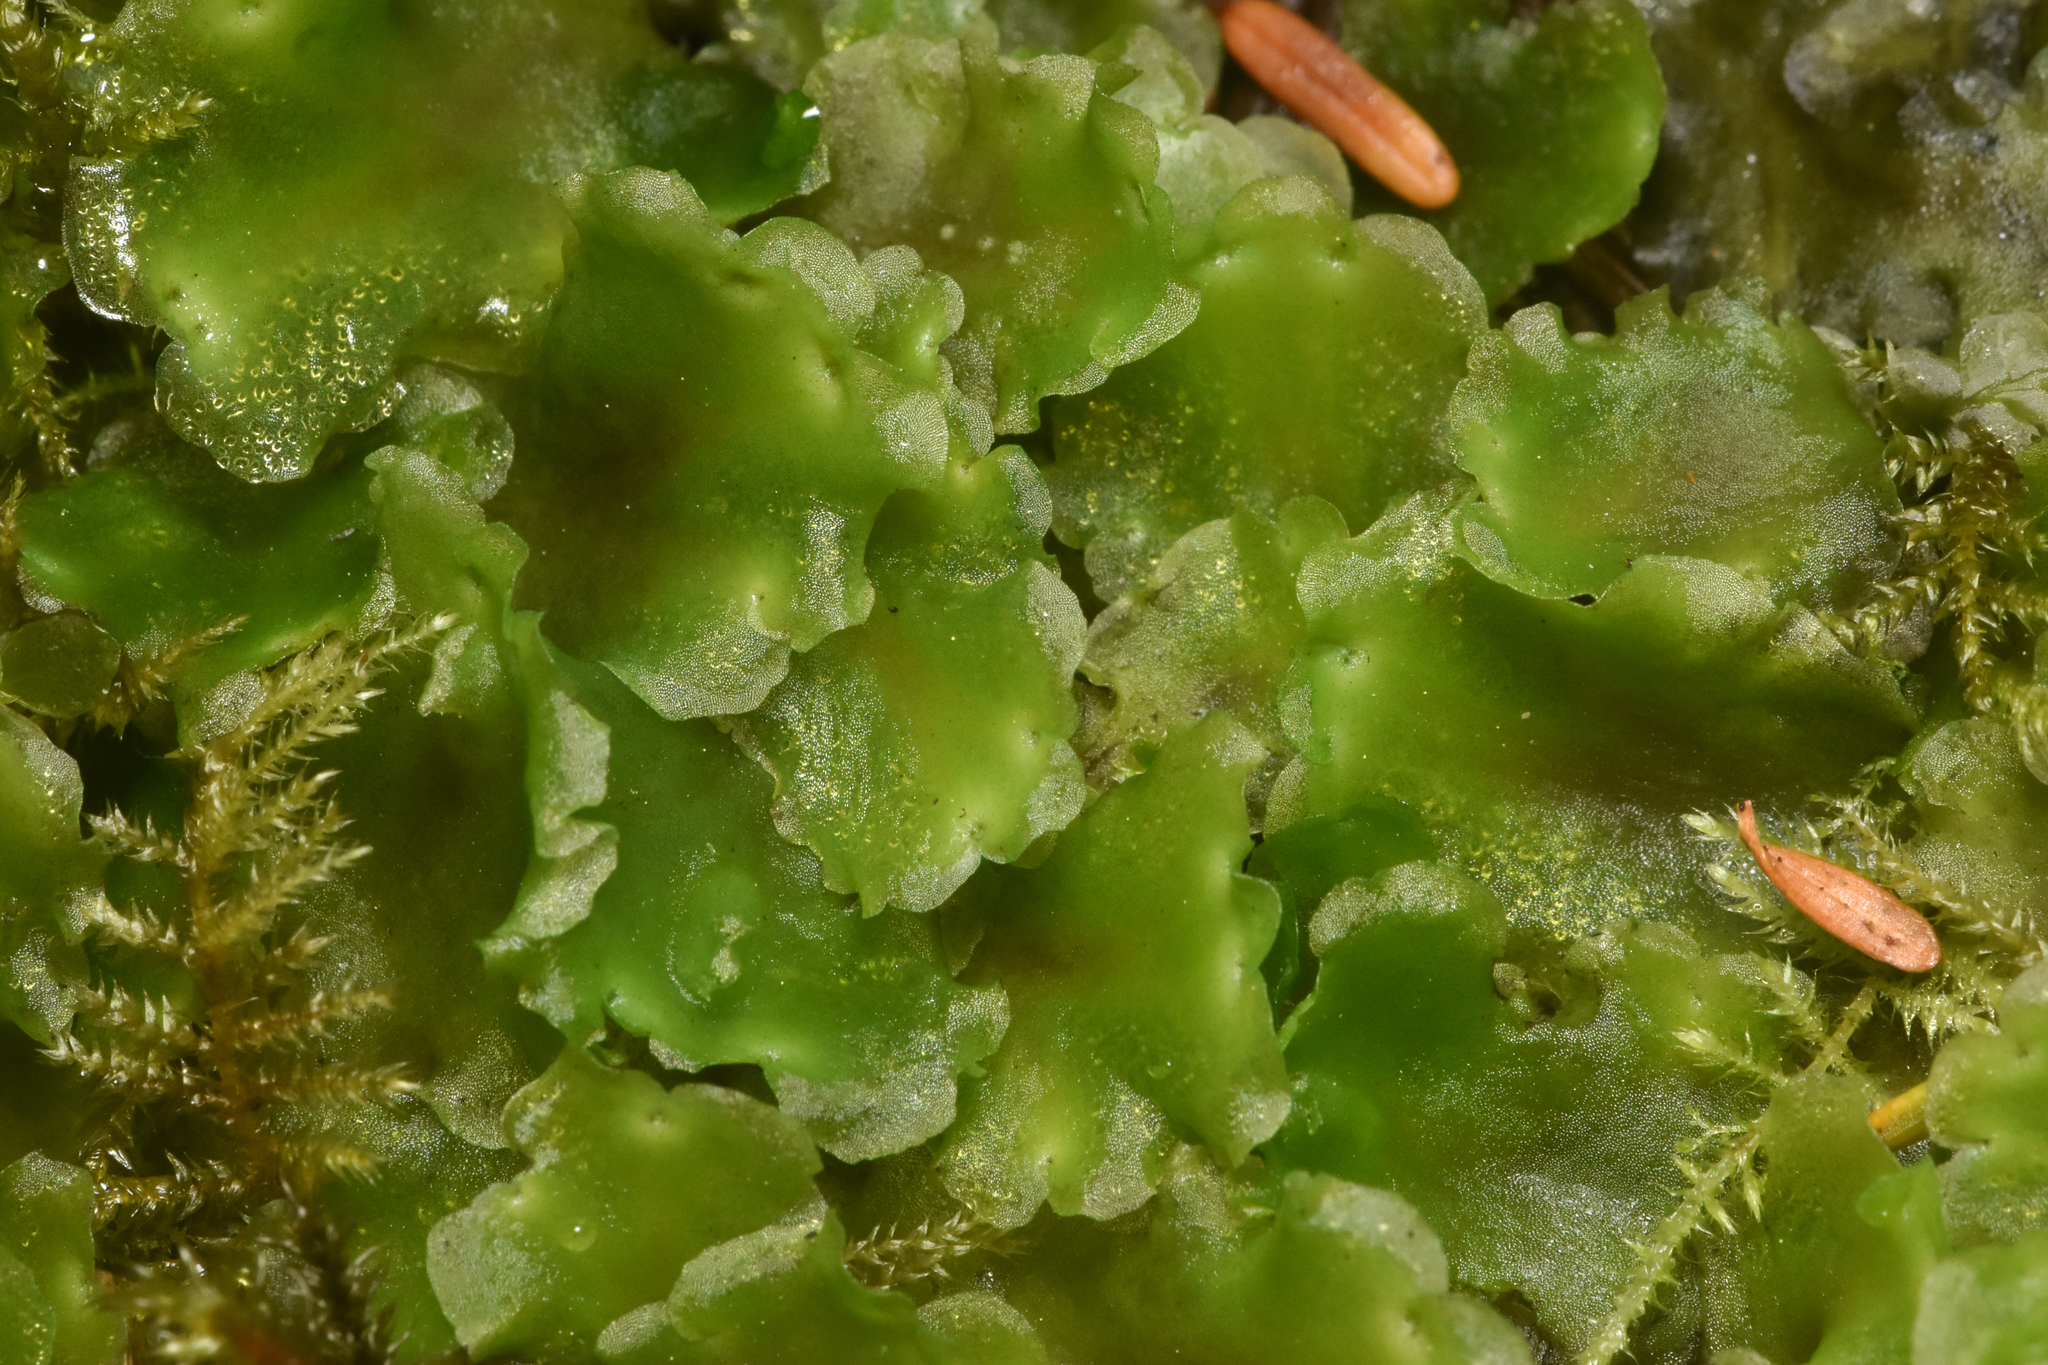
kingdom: Plantae
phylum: Marchantiophyta
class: Jungermanniopsida
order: Pelliales
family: Pelliaceae
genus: Pellia
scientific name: Pellia neesiana
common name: Nees  pellia
